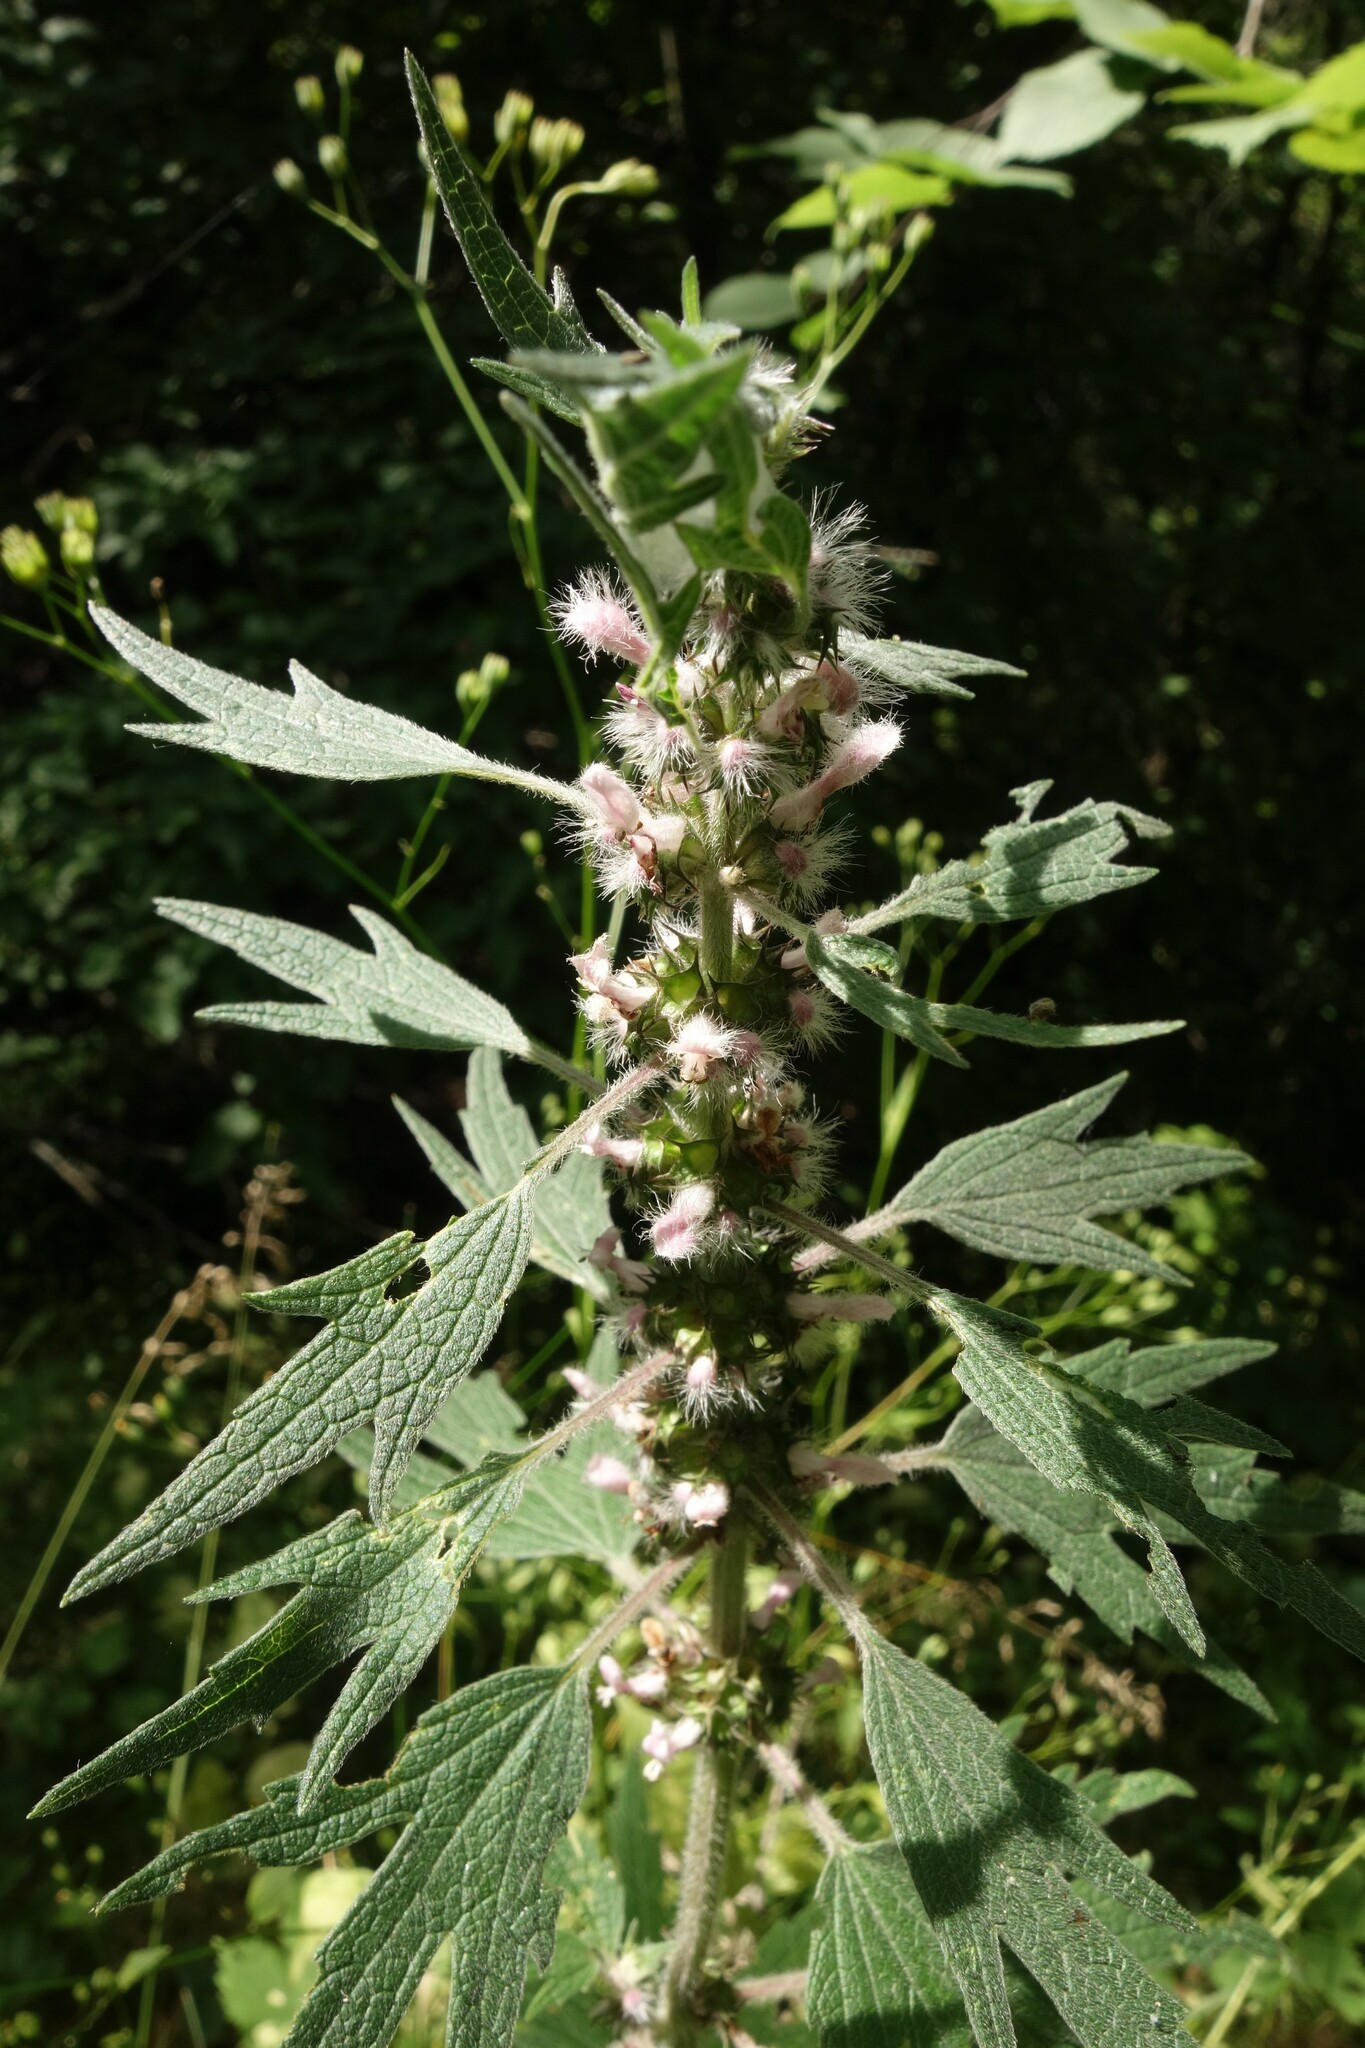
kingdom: Plantae
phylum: Tracheophyta
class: Magnoliopsida
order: Lamiales
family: Lamiaceae
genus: Leonurus
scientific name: Leonurus quinquelobatus
